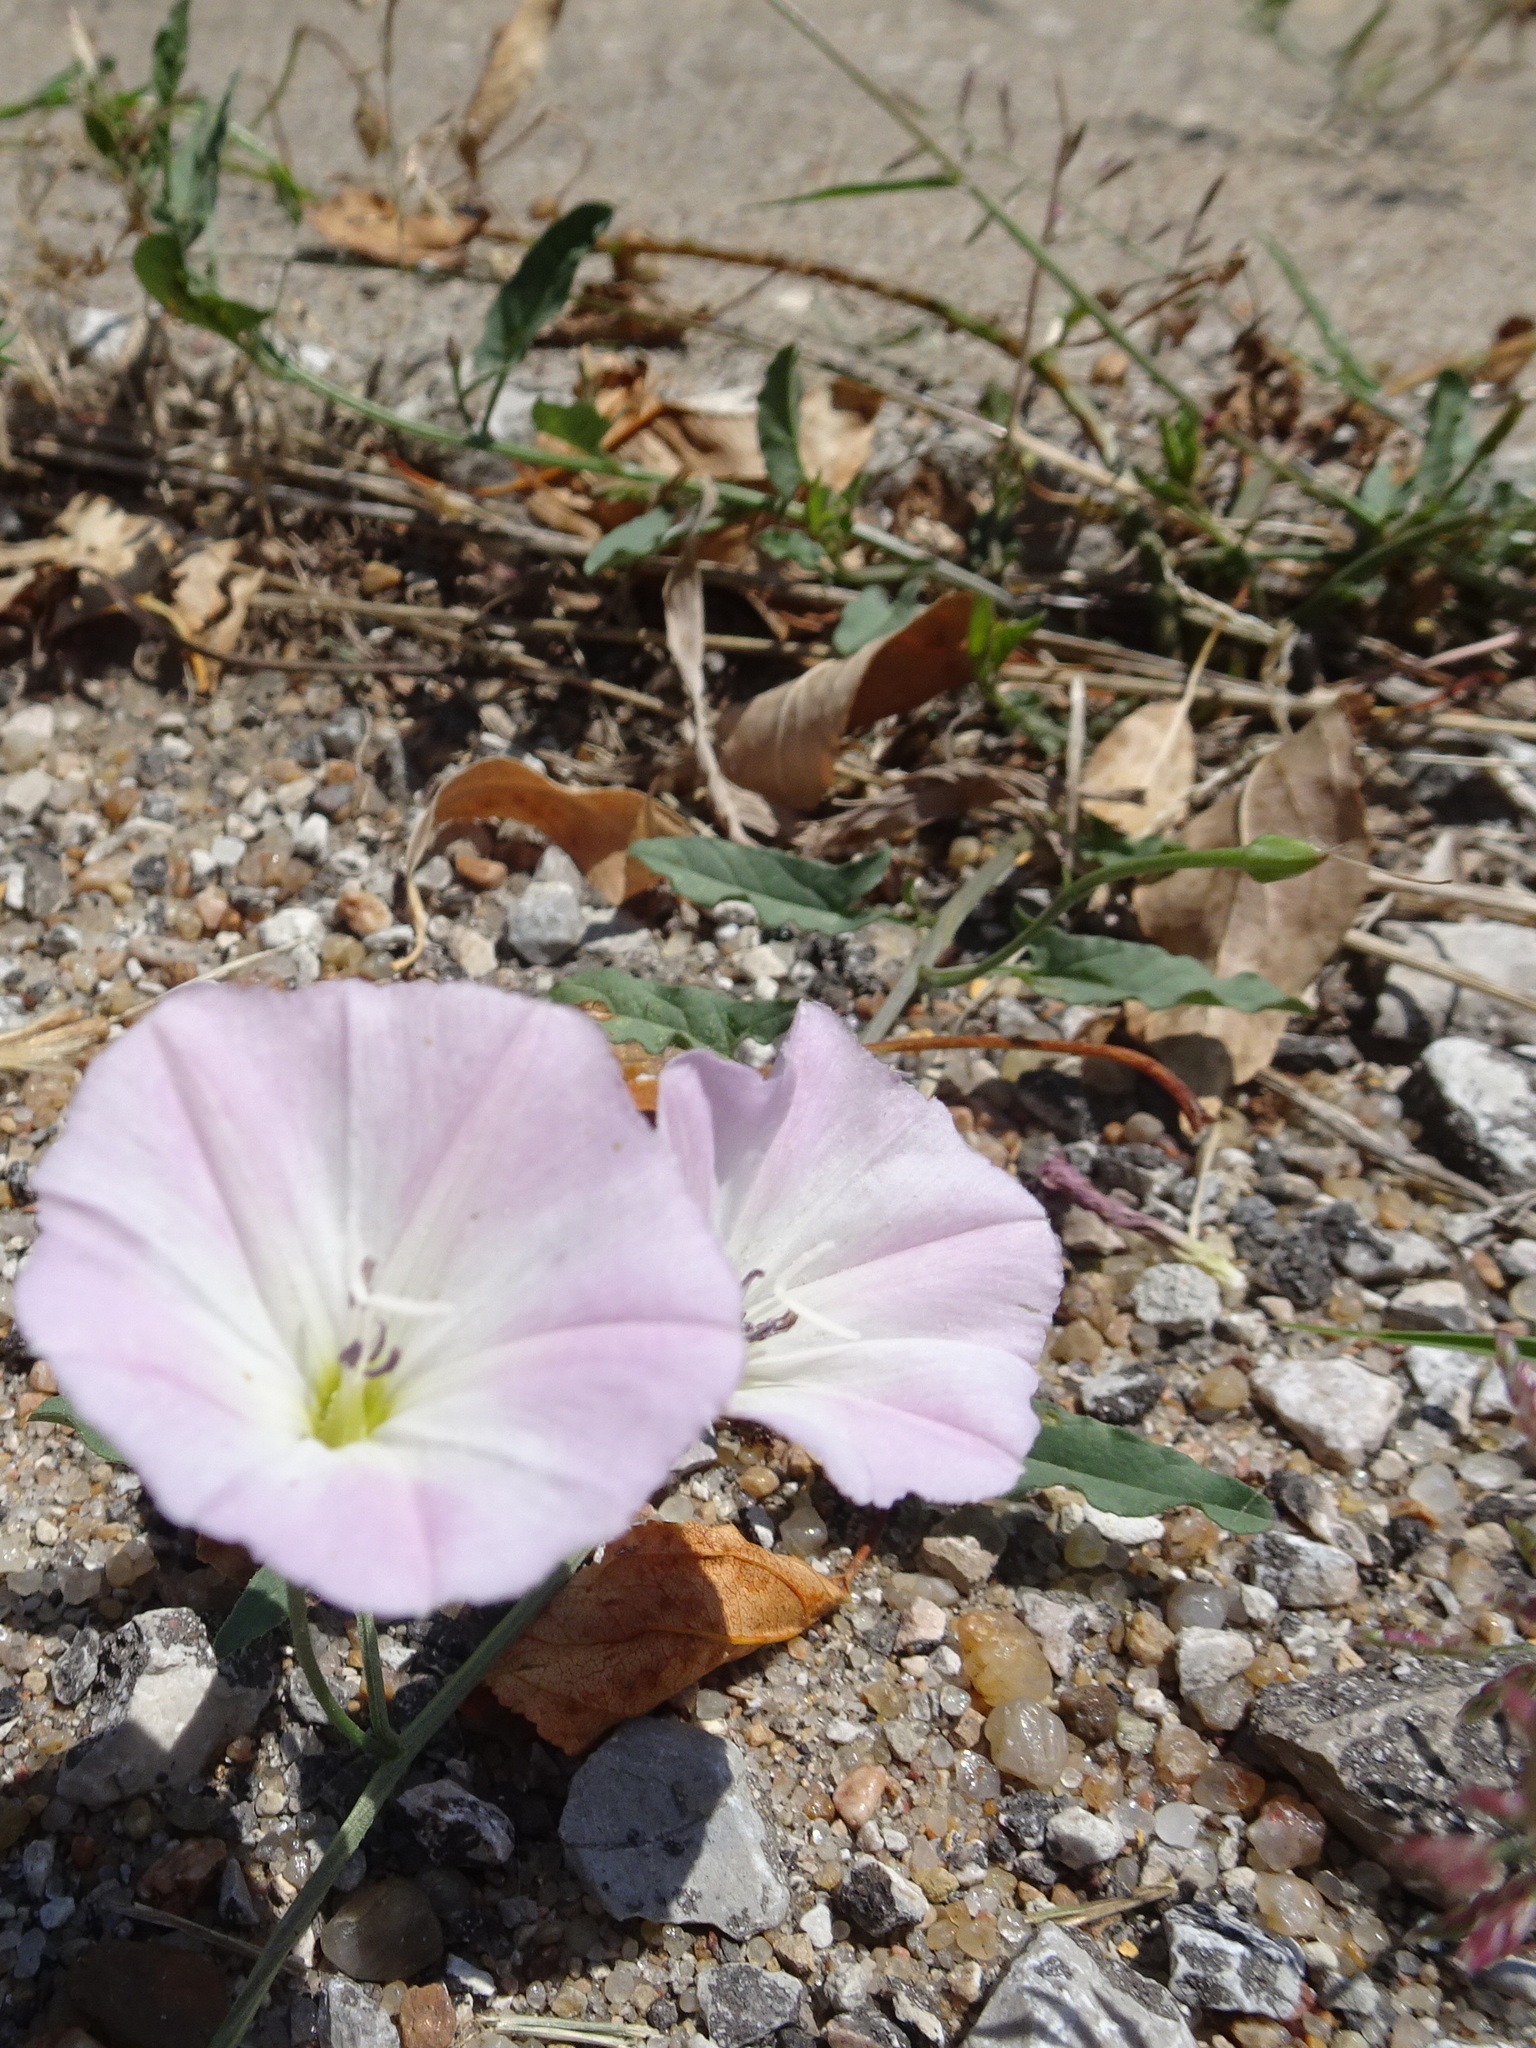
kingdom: Plantae
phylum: Tracheophyta
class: Magnoliopsida
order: Solanales
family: Convolvulaceae
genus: Convolvulus
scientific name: Convolvulus arvensis
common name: Field bindweed
